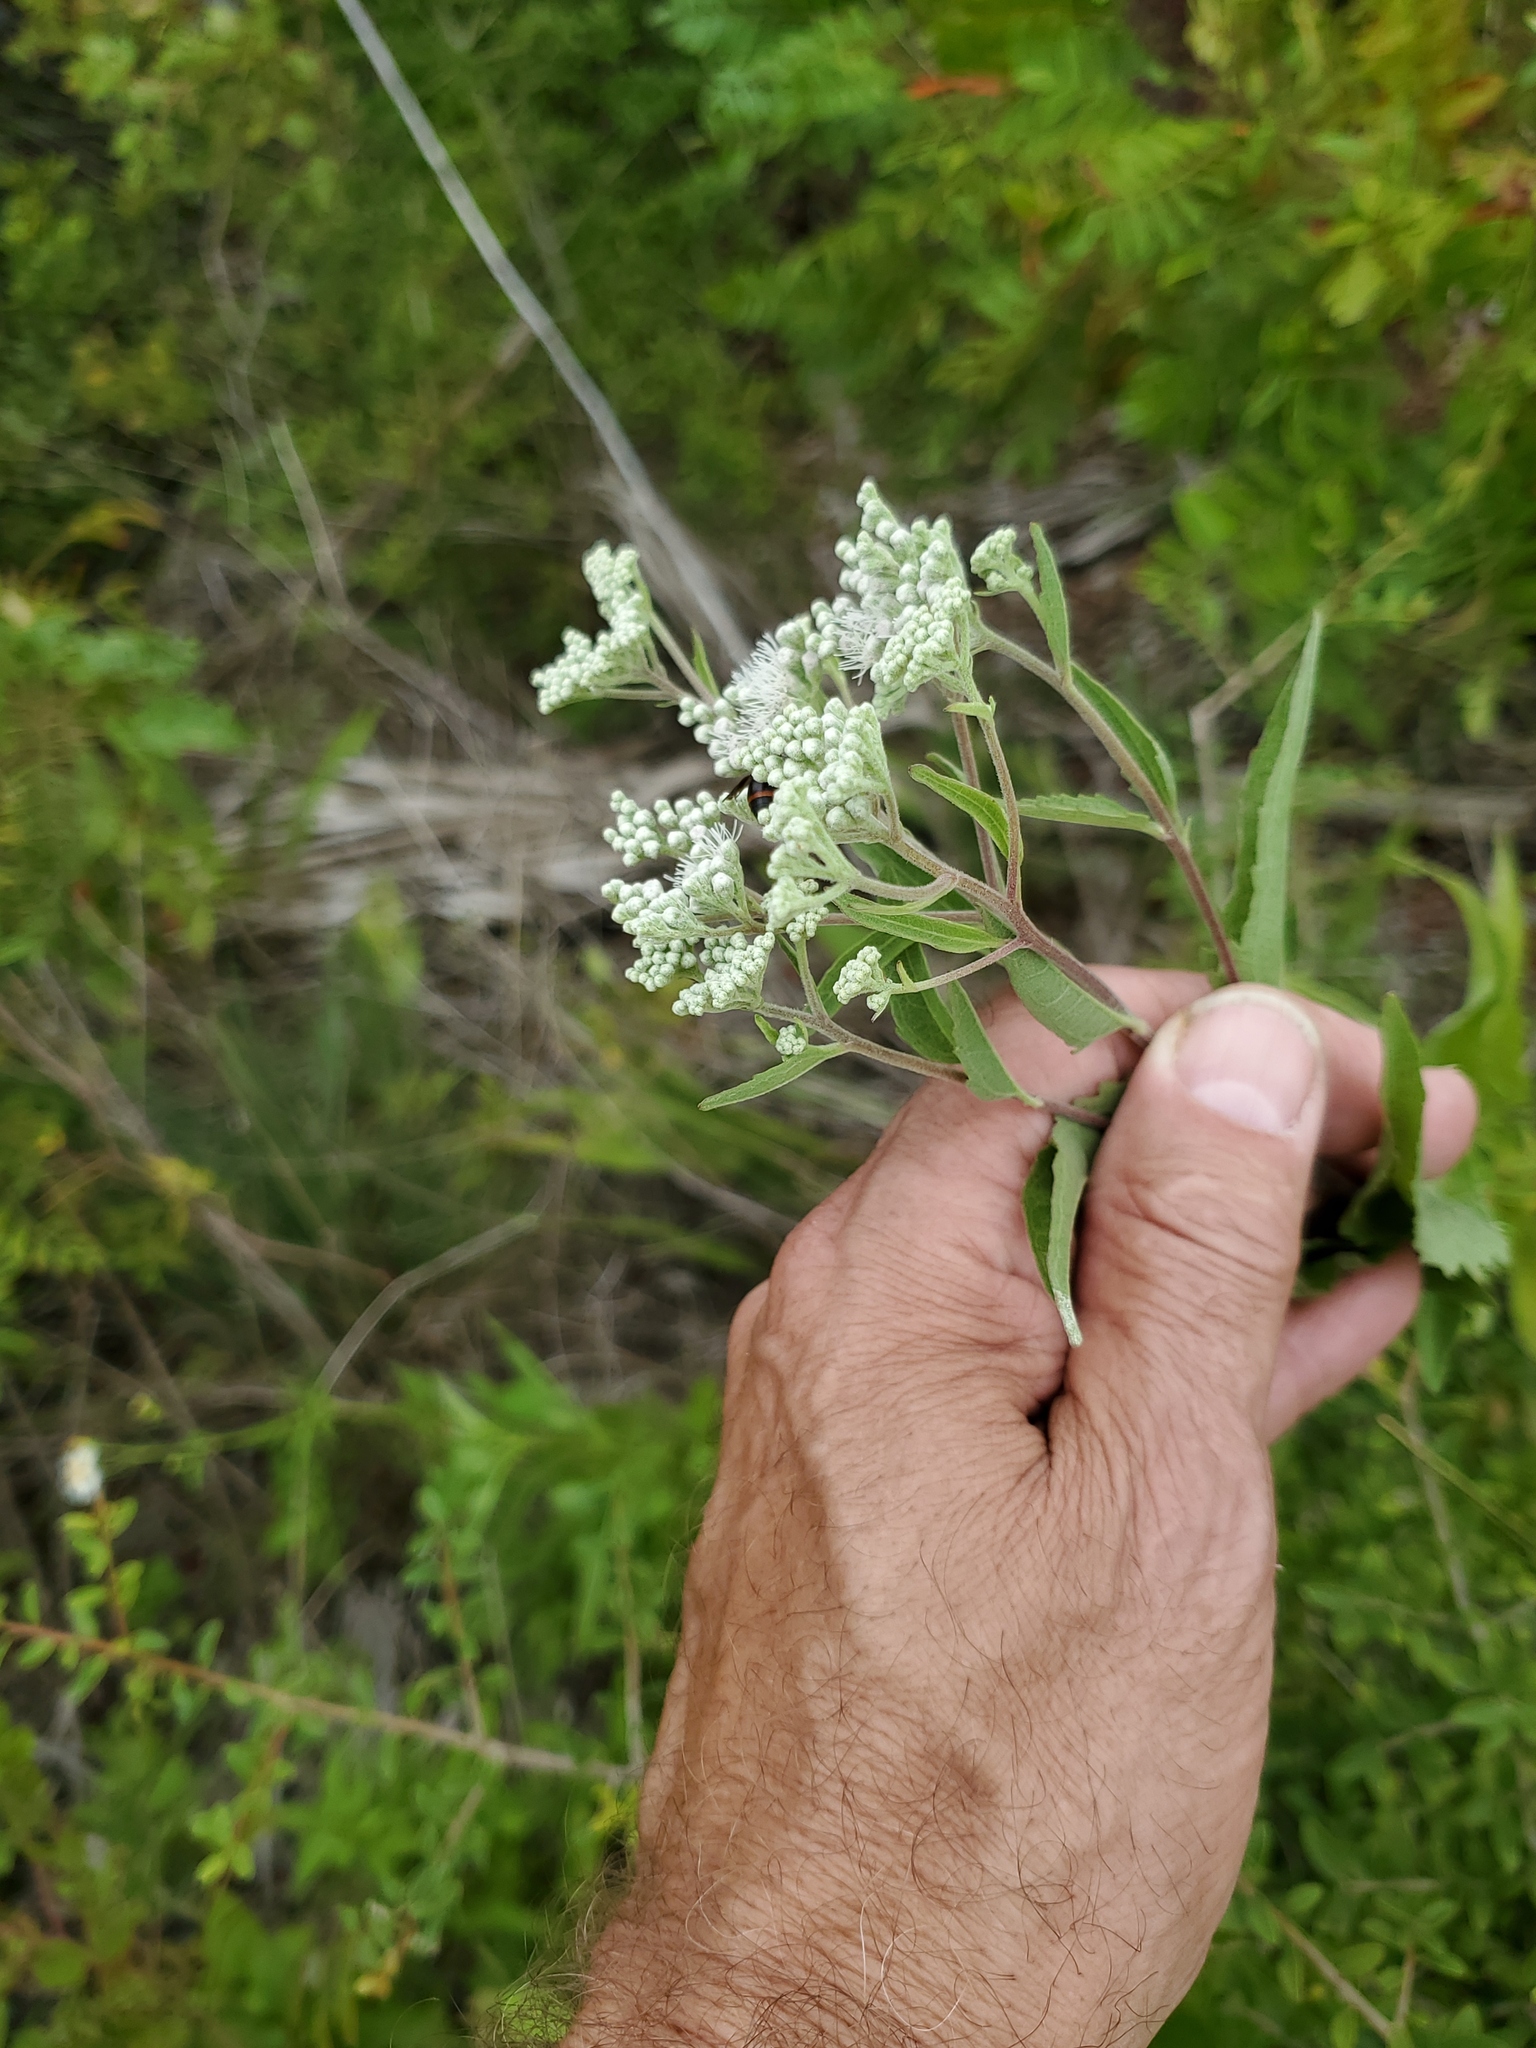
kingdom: Plantae
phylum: Tracheophyta
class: Magnoliopsida
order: Asterales
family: Asteraceae
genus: Eupatorium
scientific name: Eupatorium serotinum
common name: Late boneset
